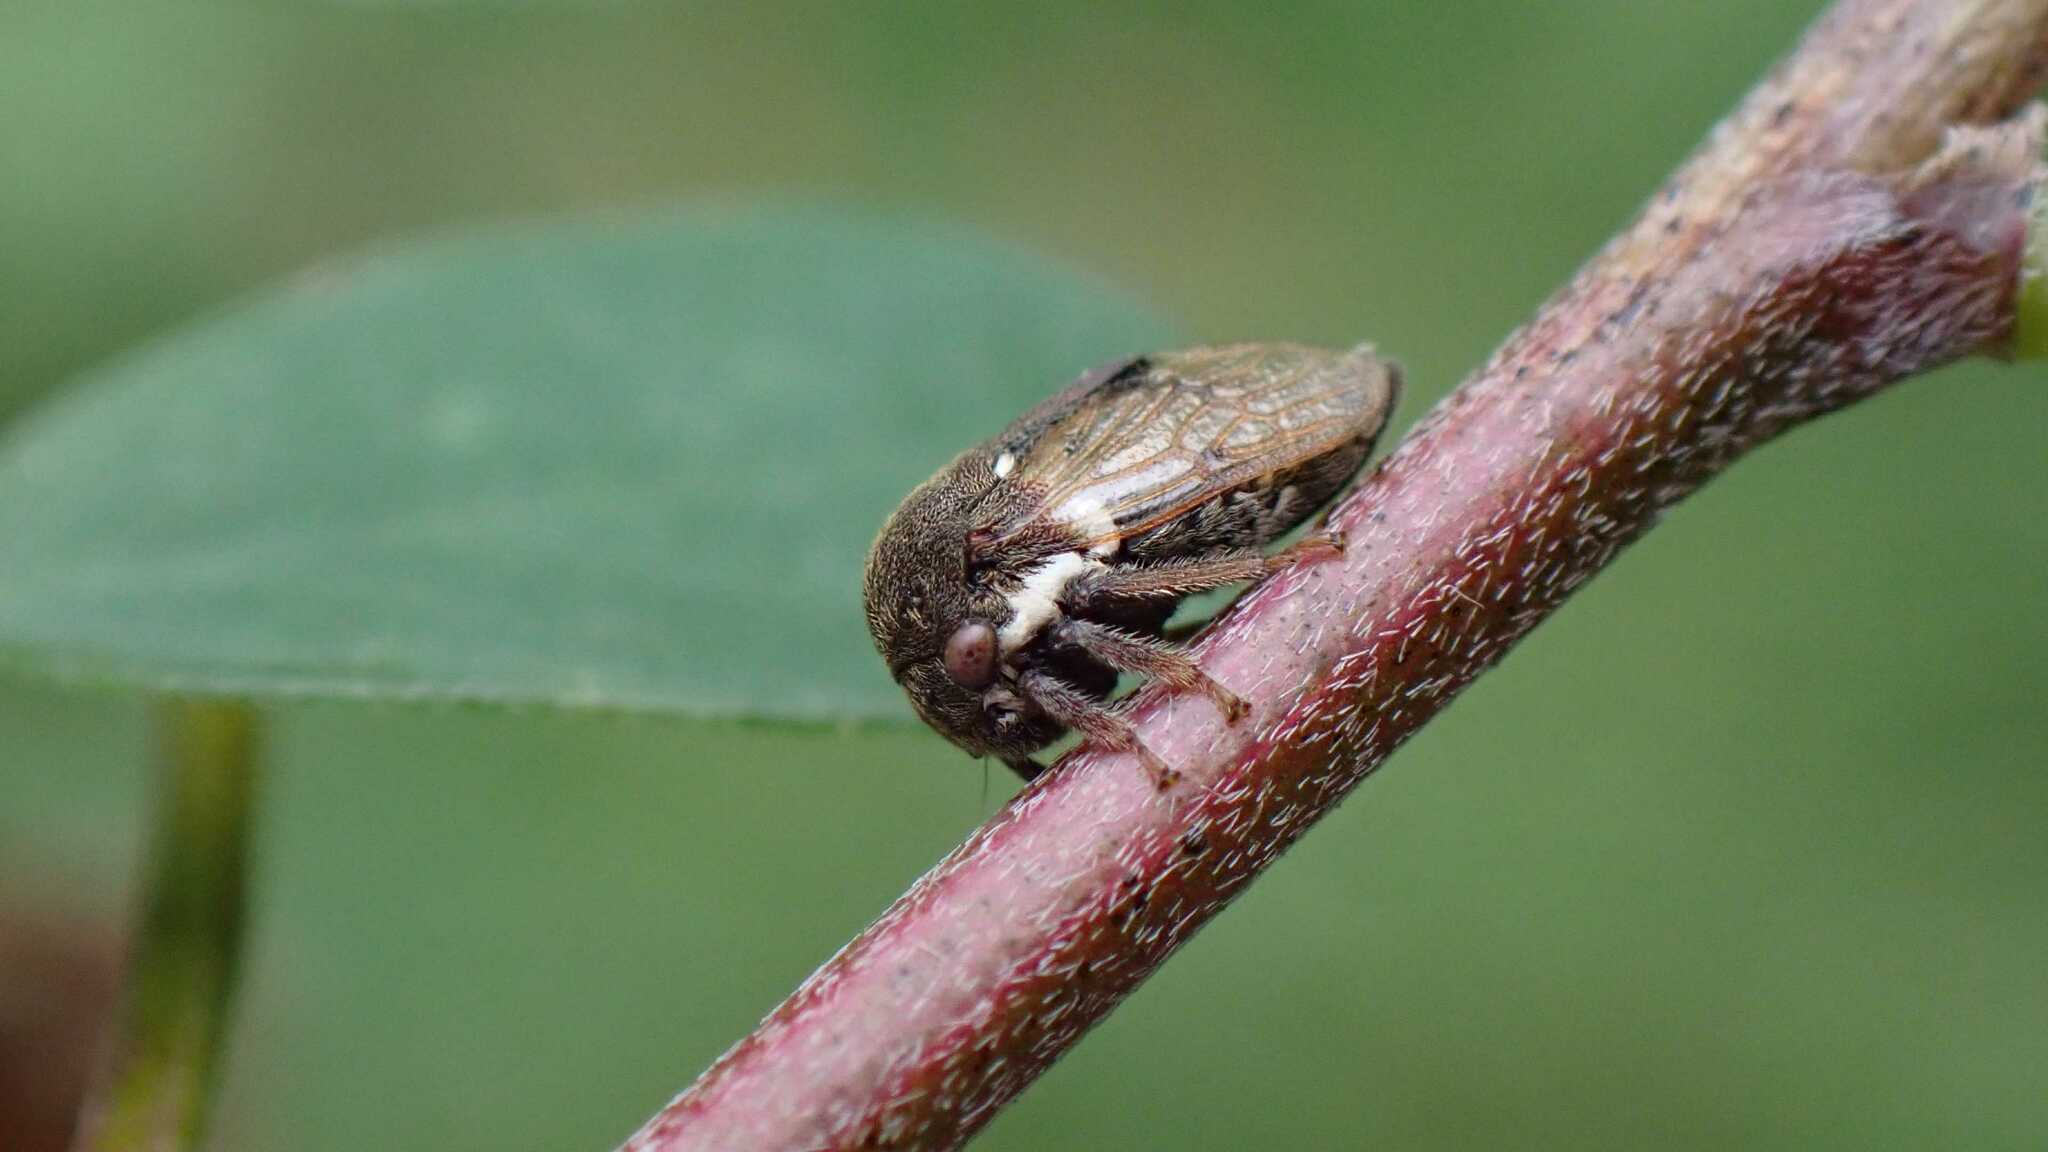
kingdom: Animalia
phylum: Arthropoda
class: Insecta
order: Hemiptera
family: Membracidae
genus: Gargara
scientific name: Gargara genistae
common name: Treehopper
